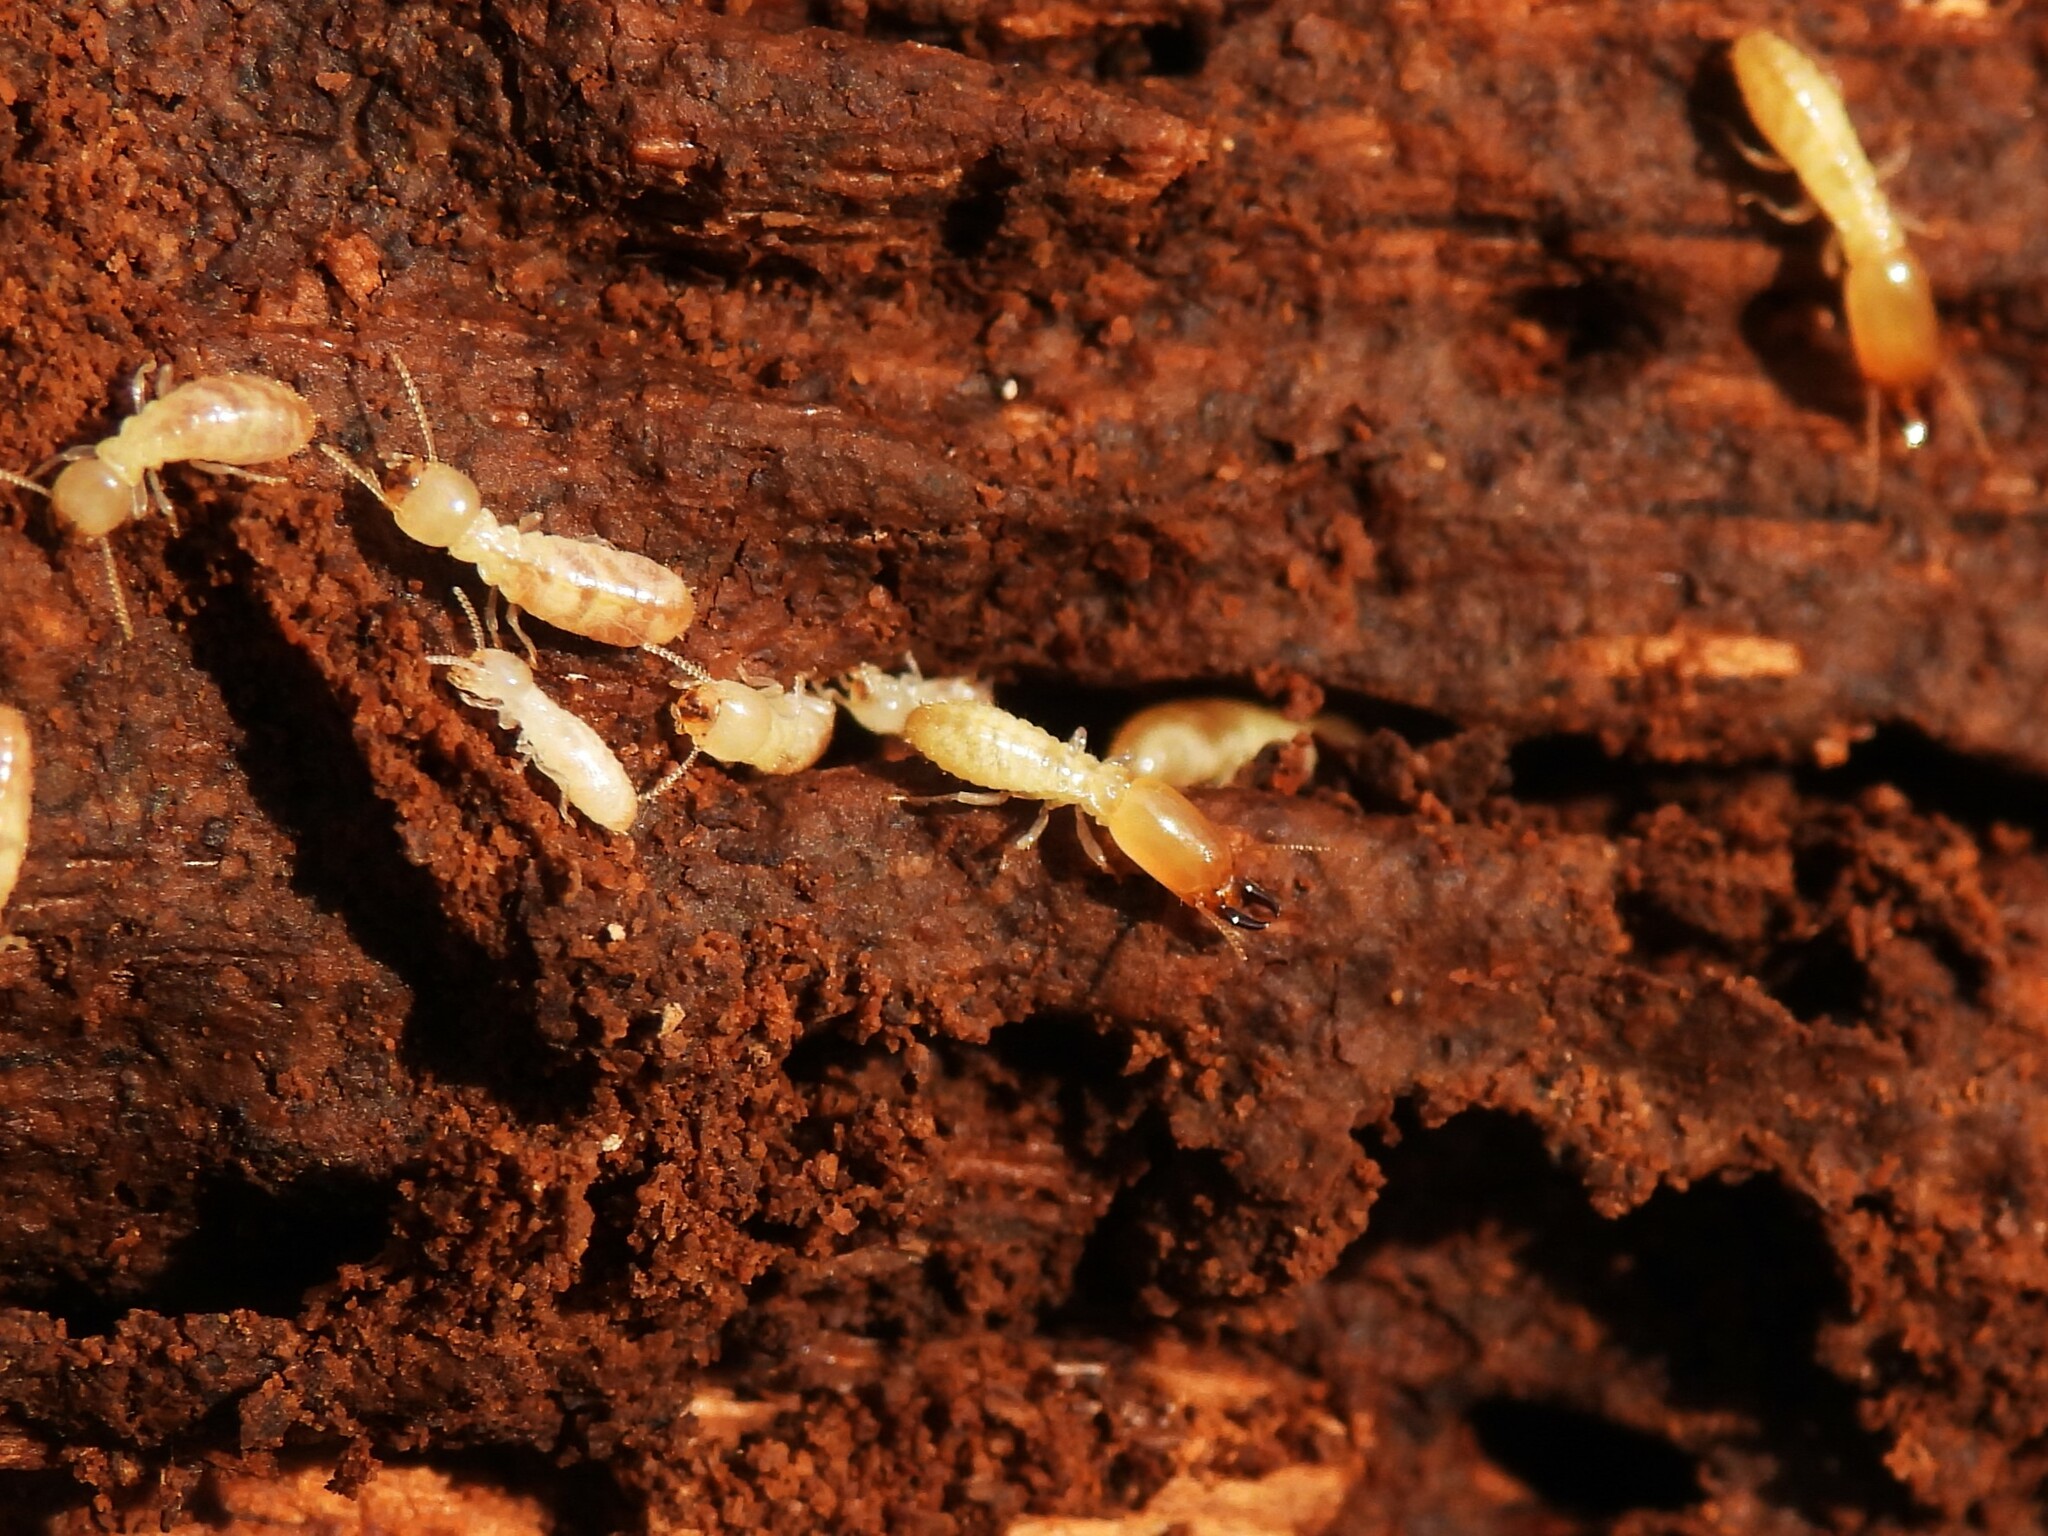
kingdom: Animalia
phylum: Arthropoda
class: Insecta
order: Blattodea
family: Rhinotermitidae
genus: Reticulitermes
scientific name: Reticulitermes flavipes
